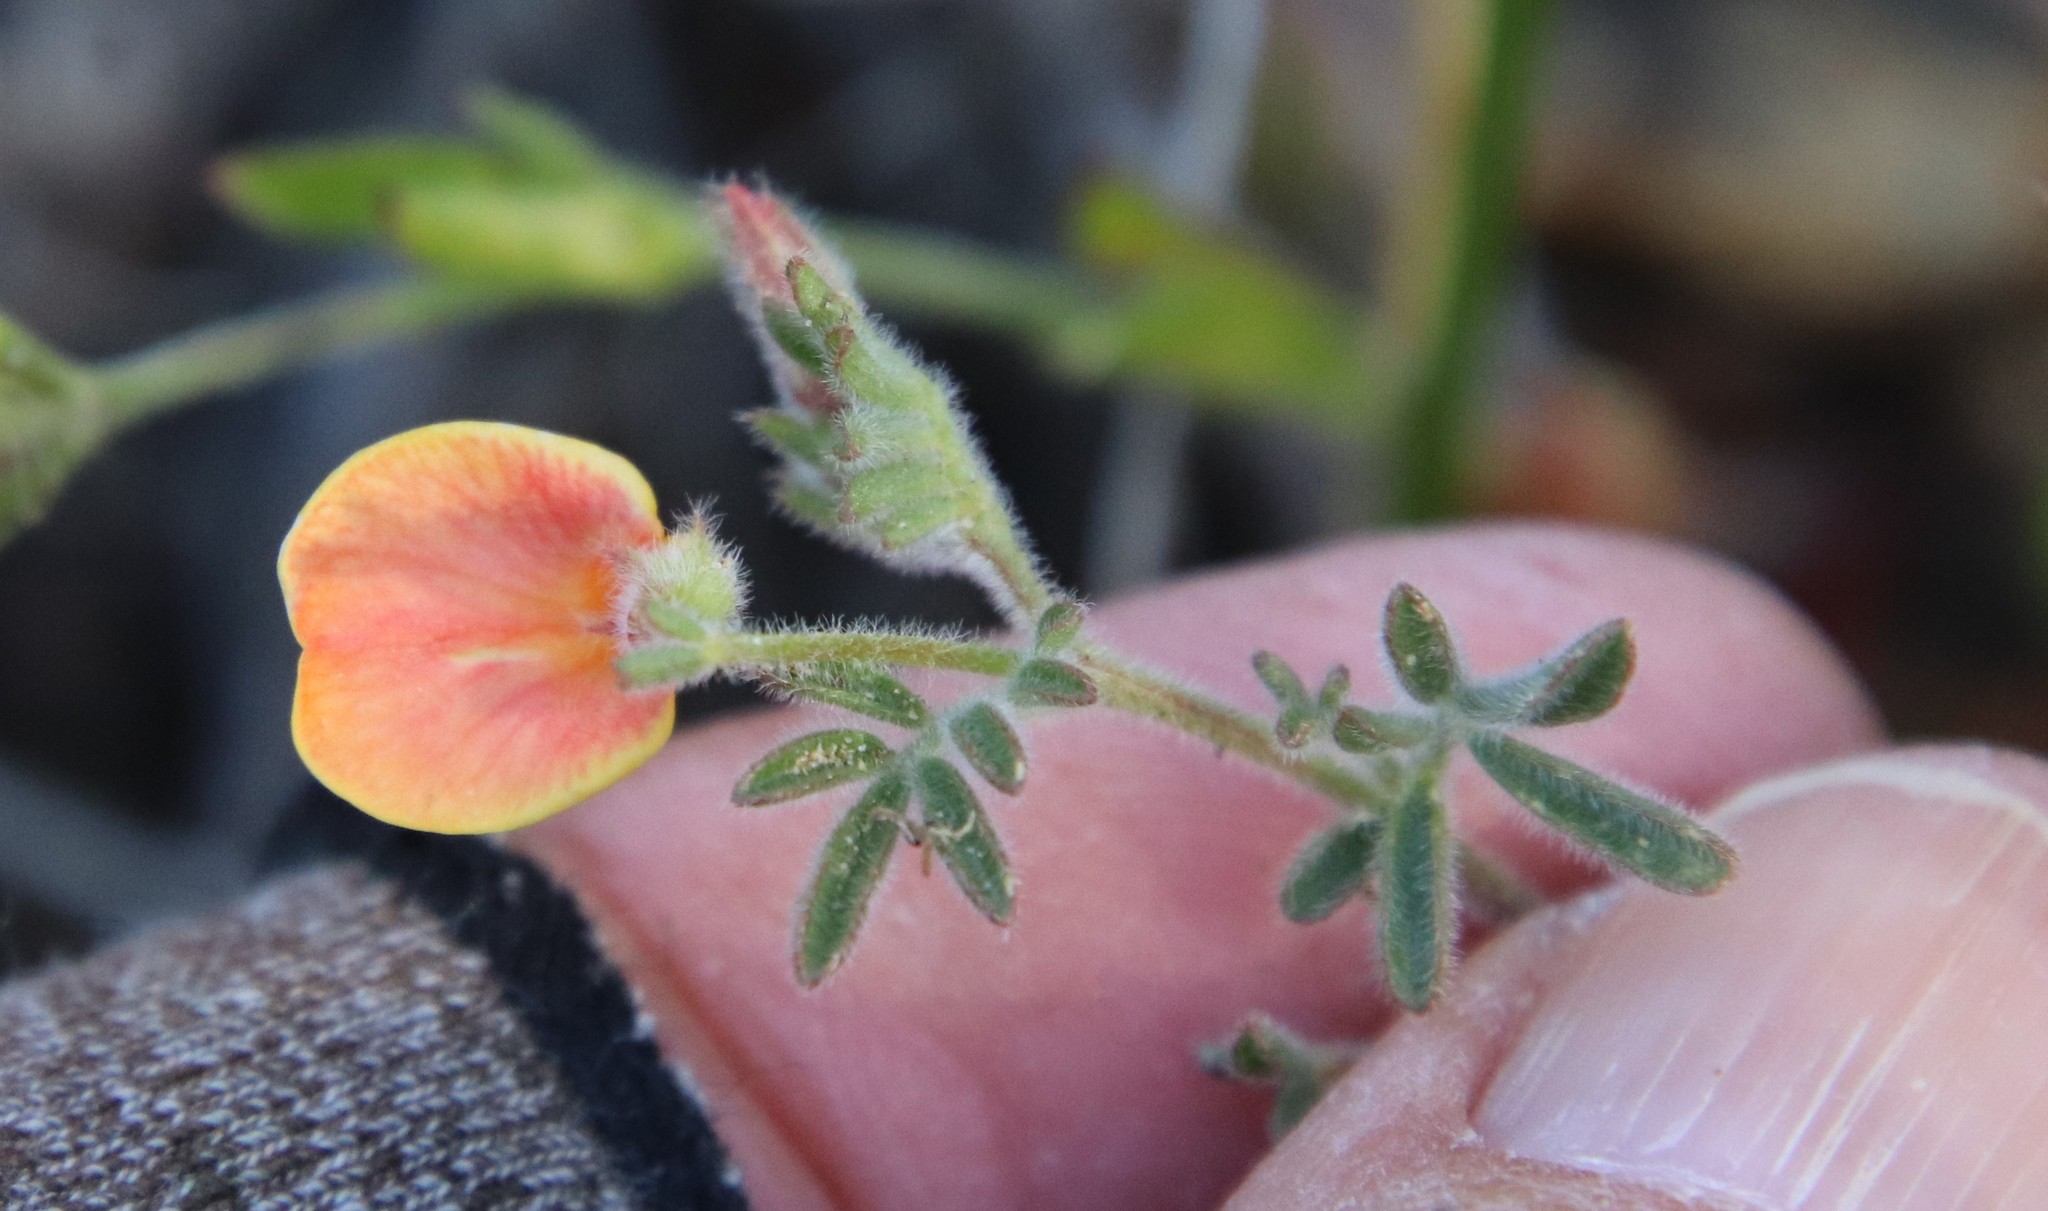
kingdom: Plantae
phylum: Tracheophyta
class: Magnoliopsida
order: Fabales
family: Fabaceae
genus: Acmispon
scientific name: Acmispon strigosus
